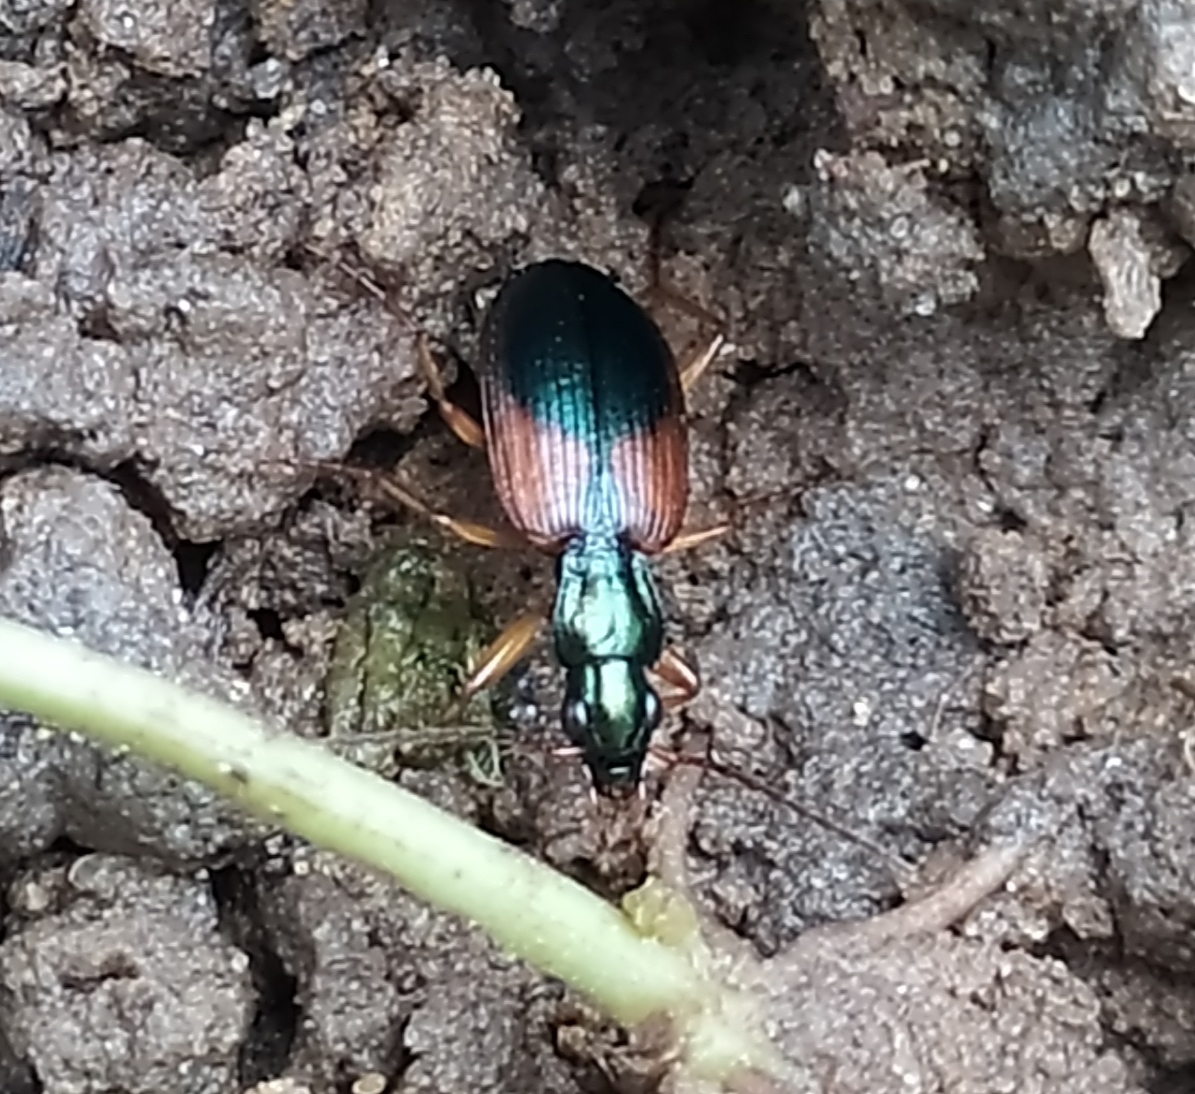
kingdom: Animalia
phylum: Arthropoda
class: Insecta
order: Coleoptera
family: Carabidae
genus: Anchomenus
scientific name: Anchomenus dorsalis
